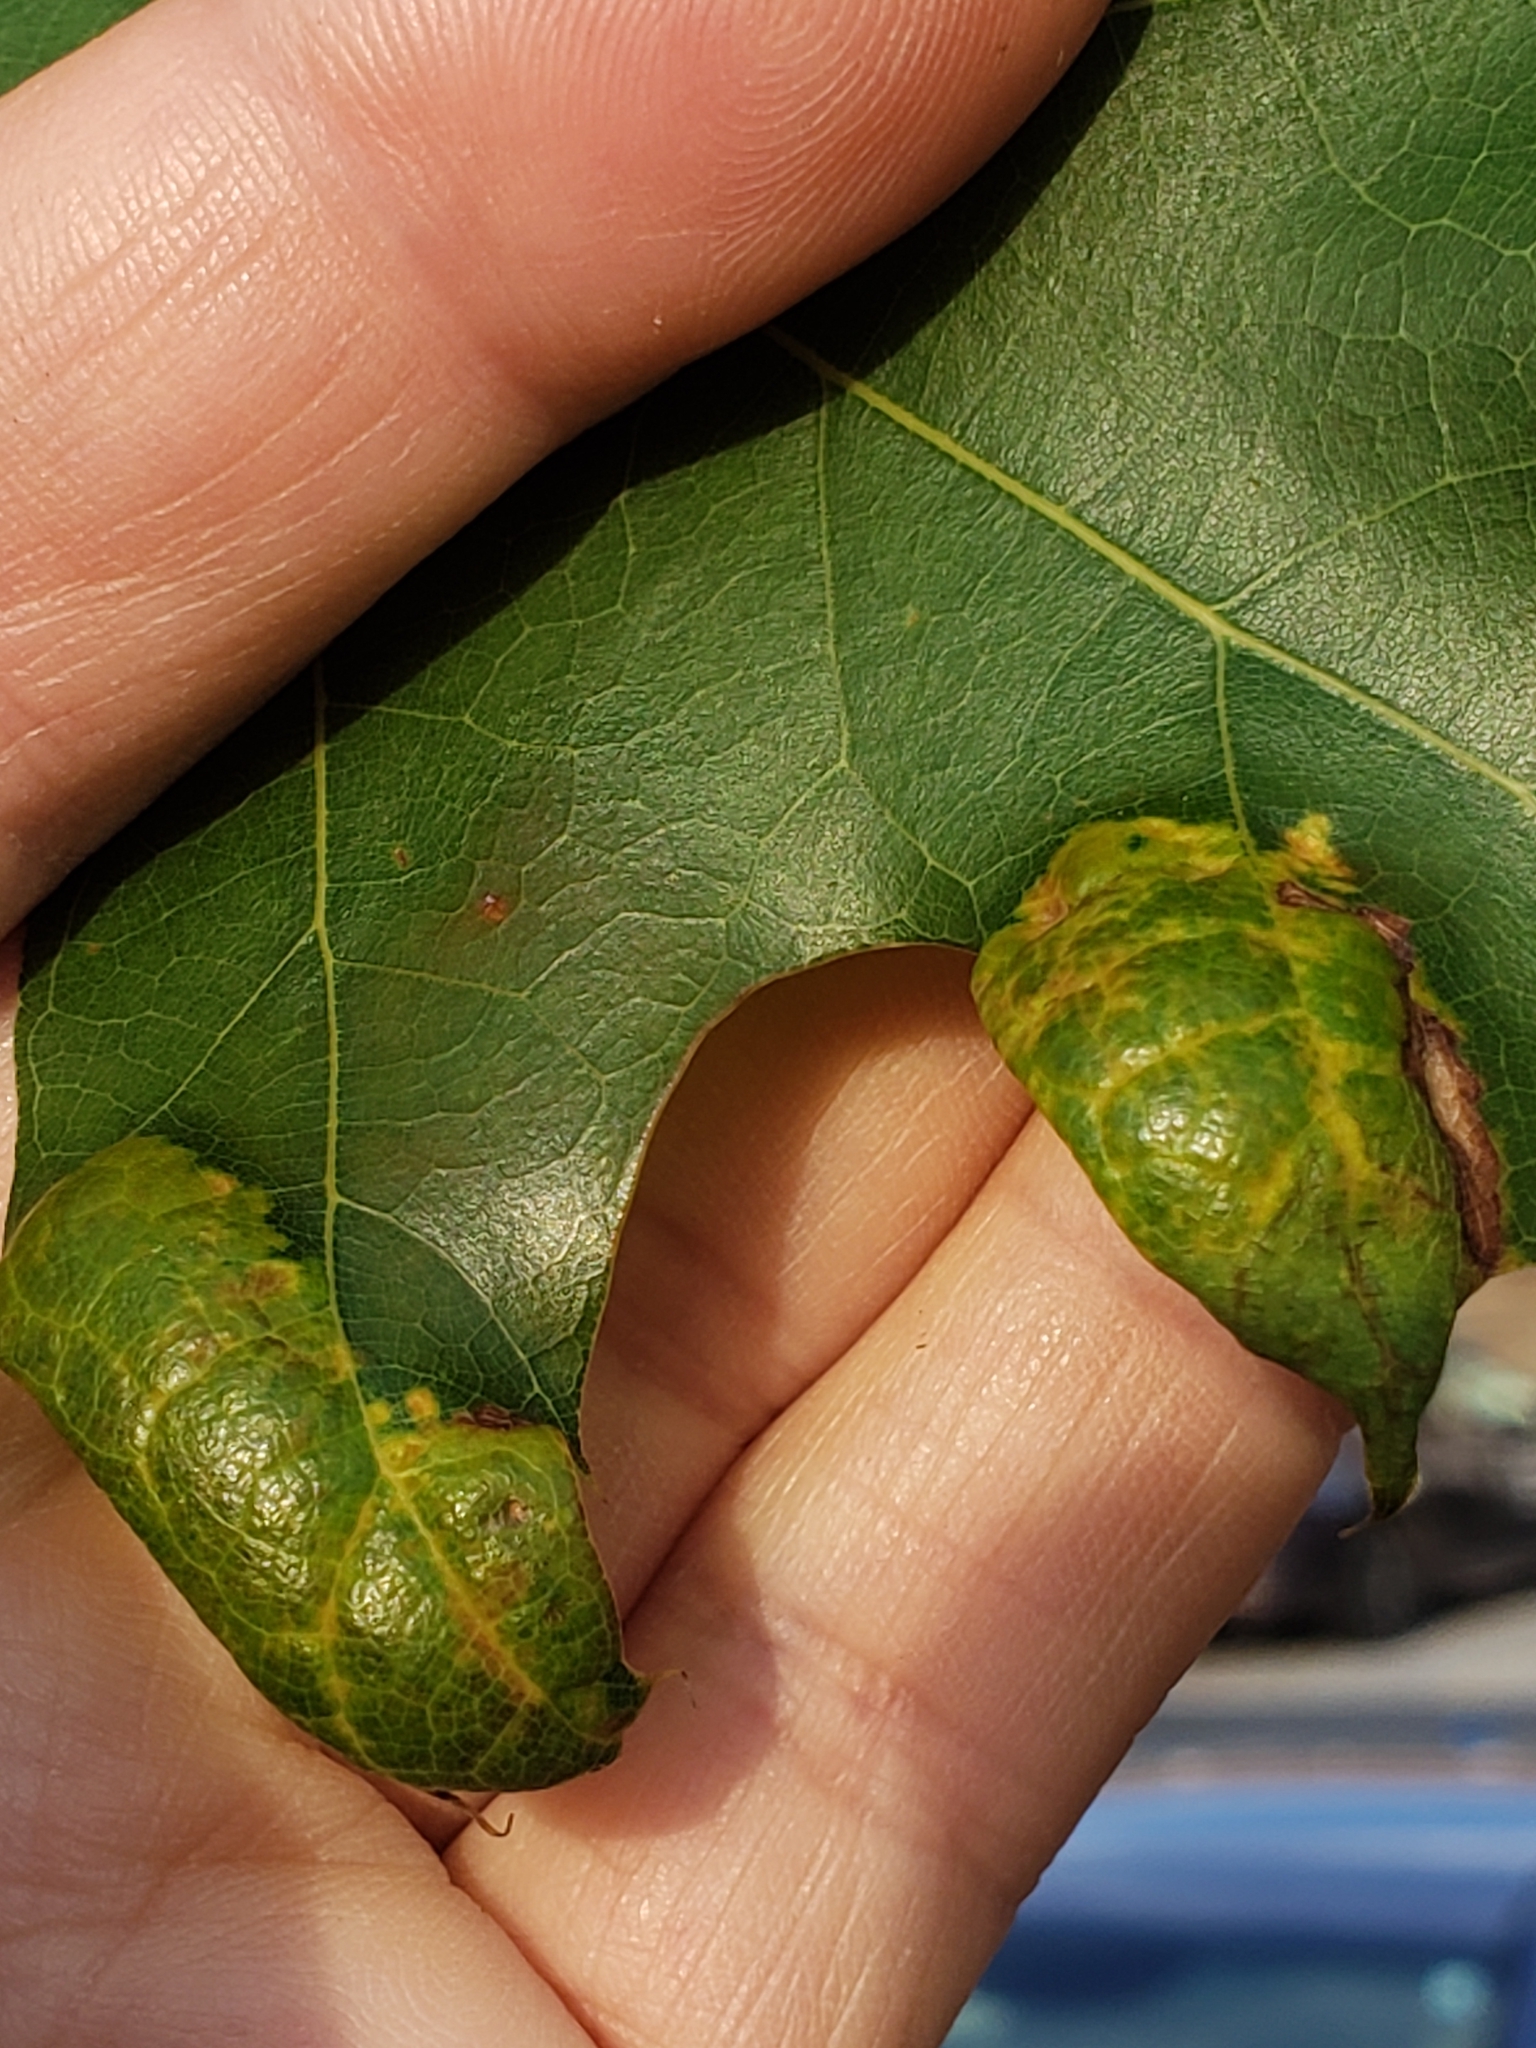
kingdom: Fungi
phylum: Ascomycota
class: Taphrinomycetes
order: Taphrinales
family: Taphrinaceae
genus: Taphrina
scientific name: Taphrina caerulescens
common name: Oak leaf blister
